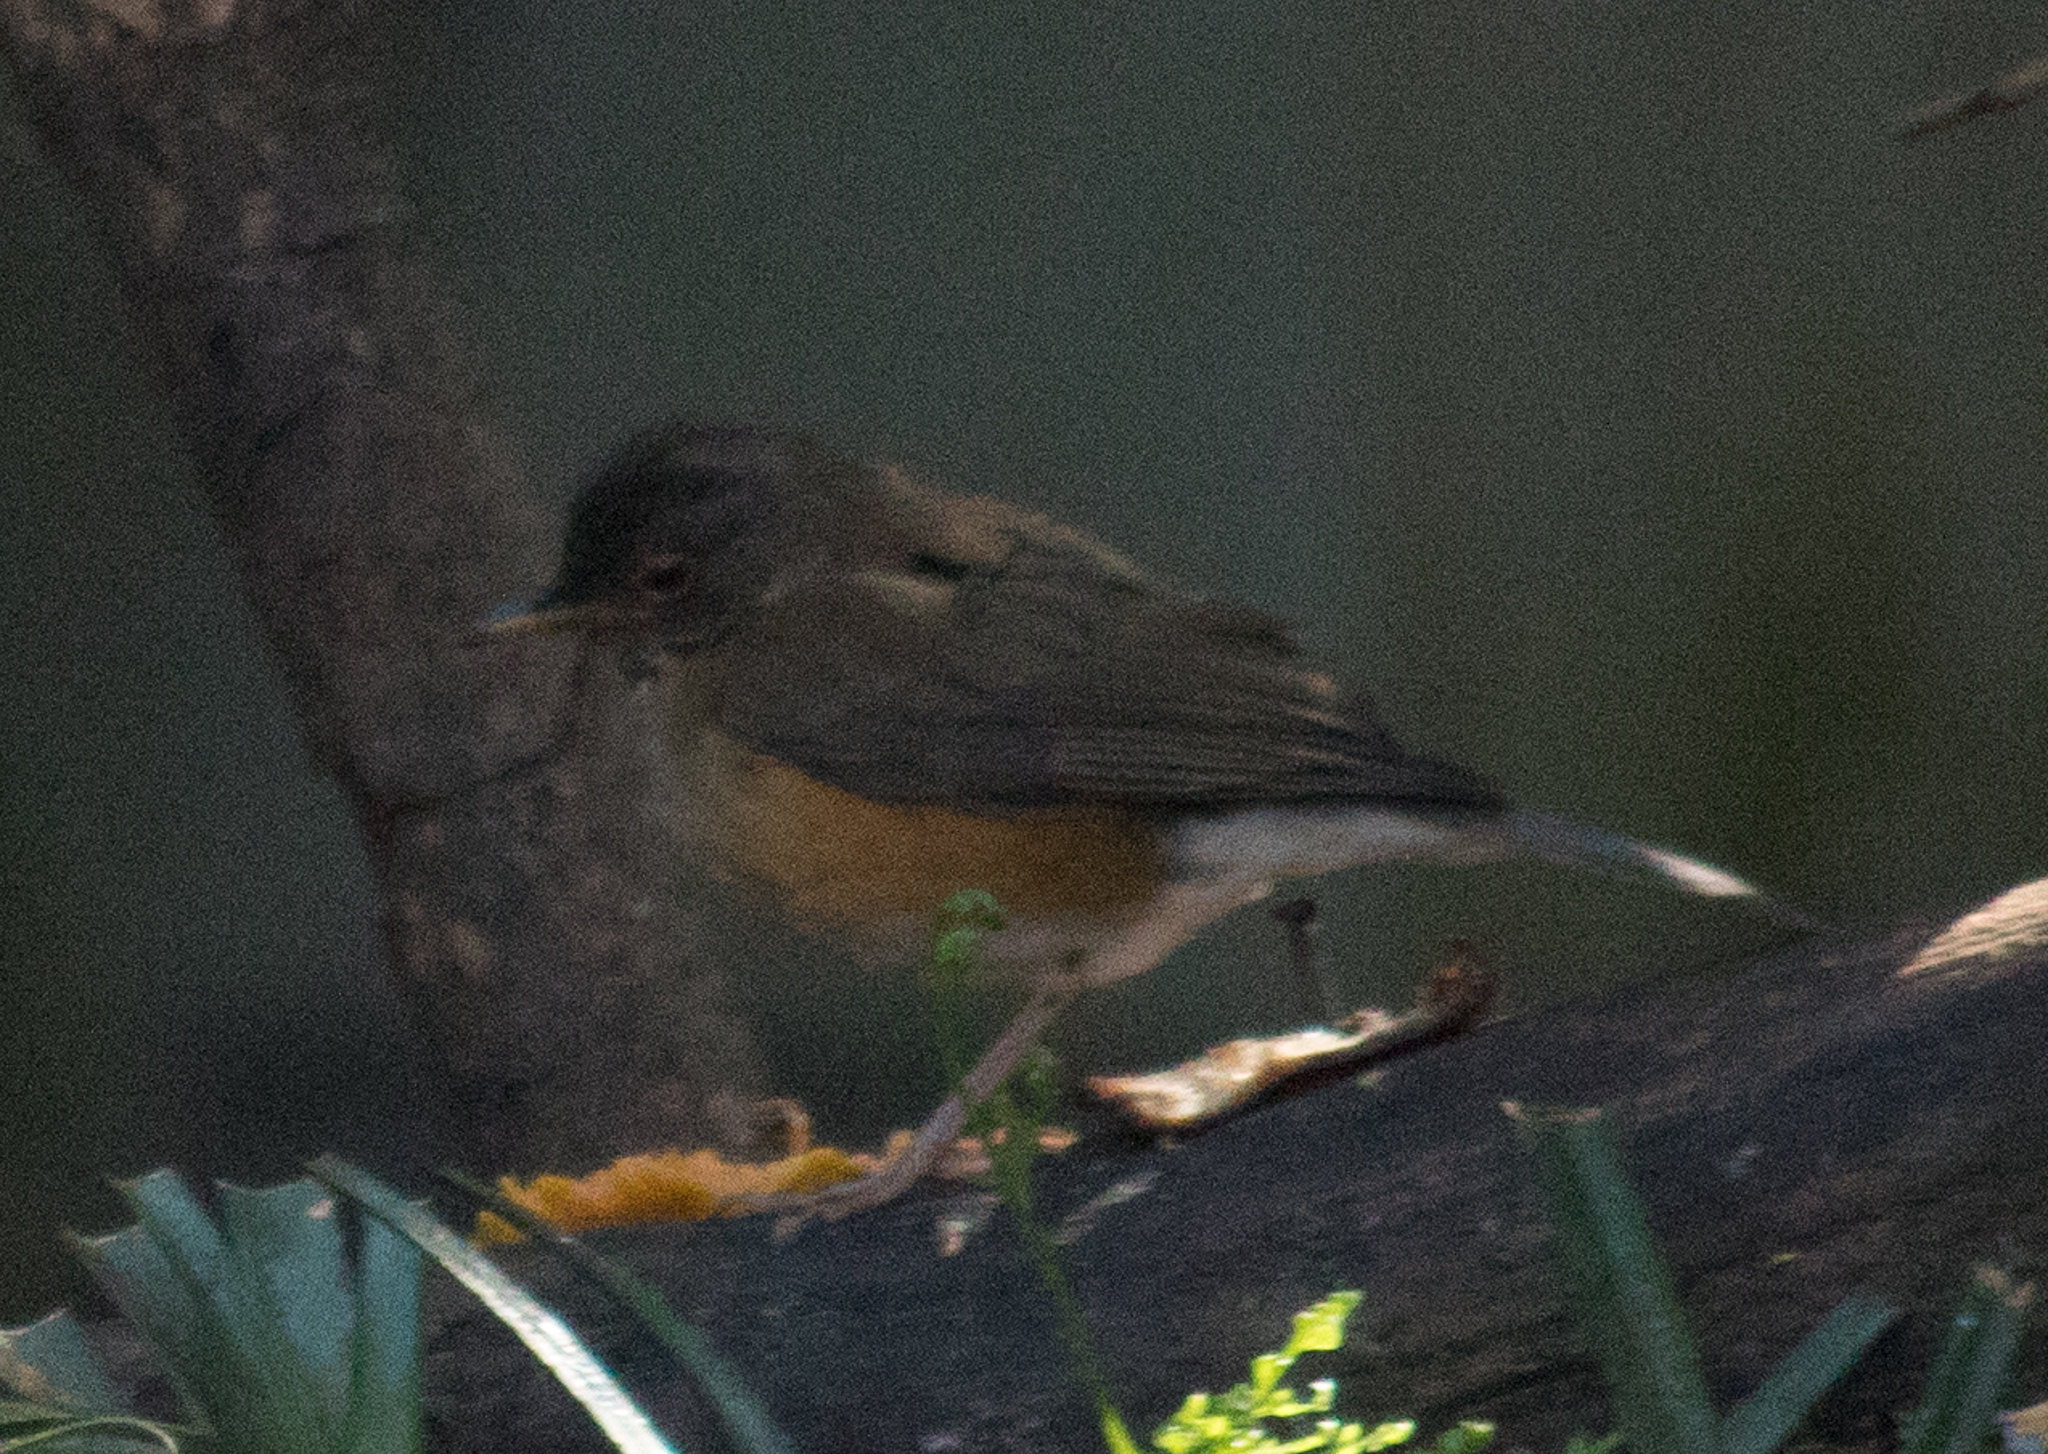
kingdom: Animalia
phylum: Chordata
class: Aves
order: Passeriformes
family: Turdidae
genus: Turdus
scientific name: Turdus rufiventris
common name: Rufous-bellied thrush
